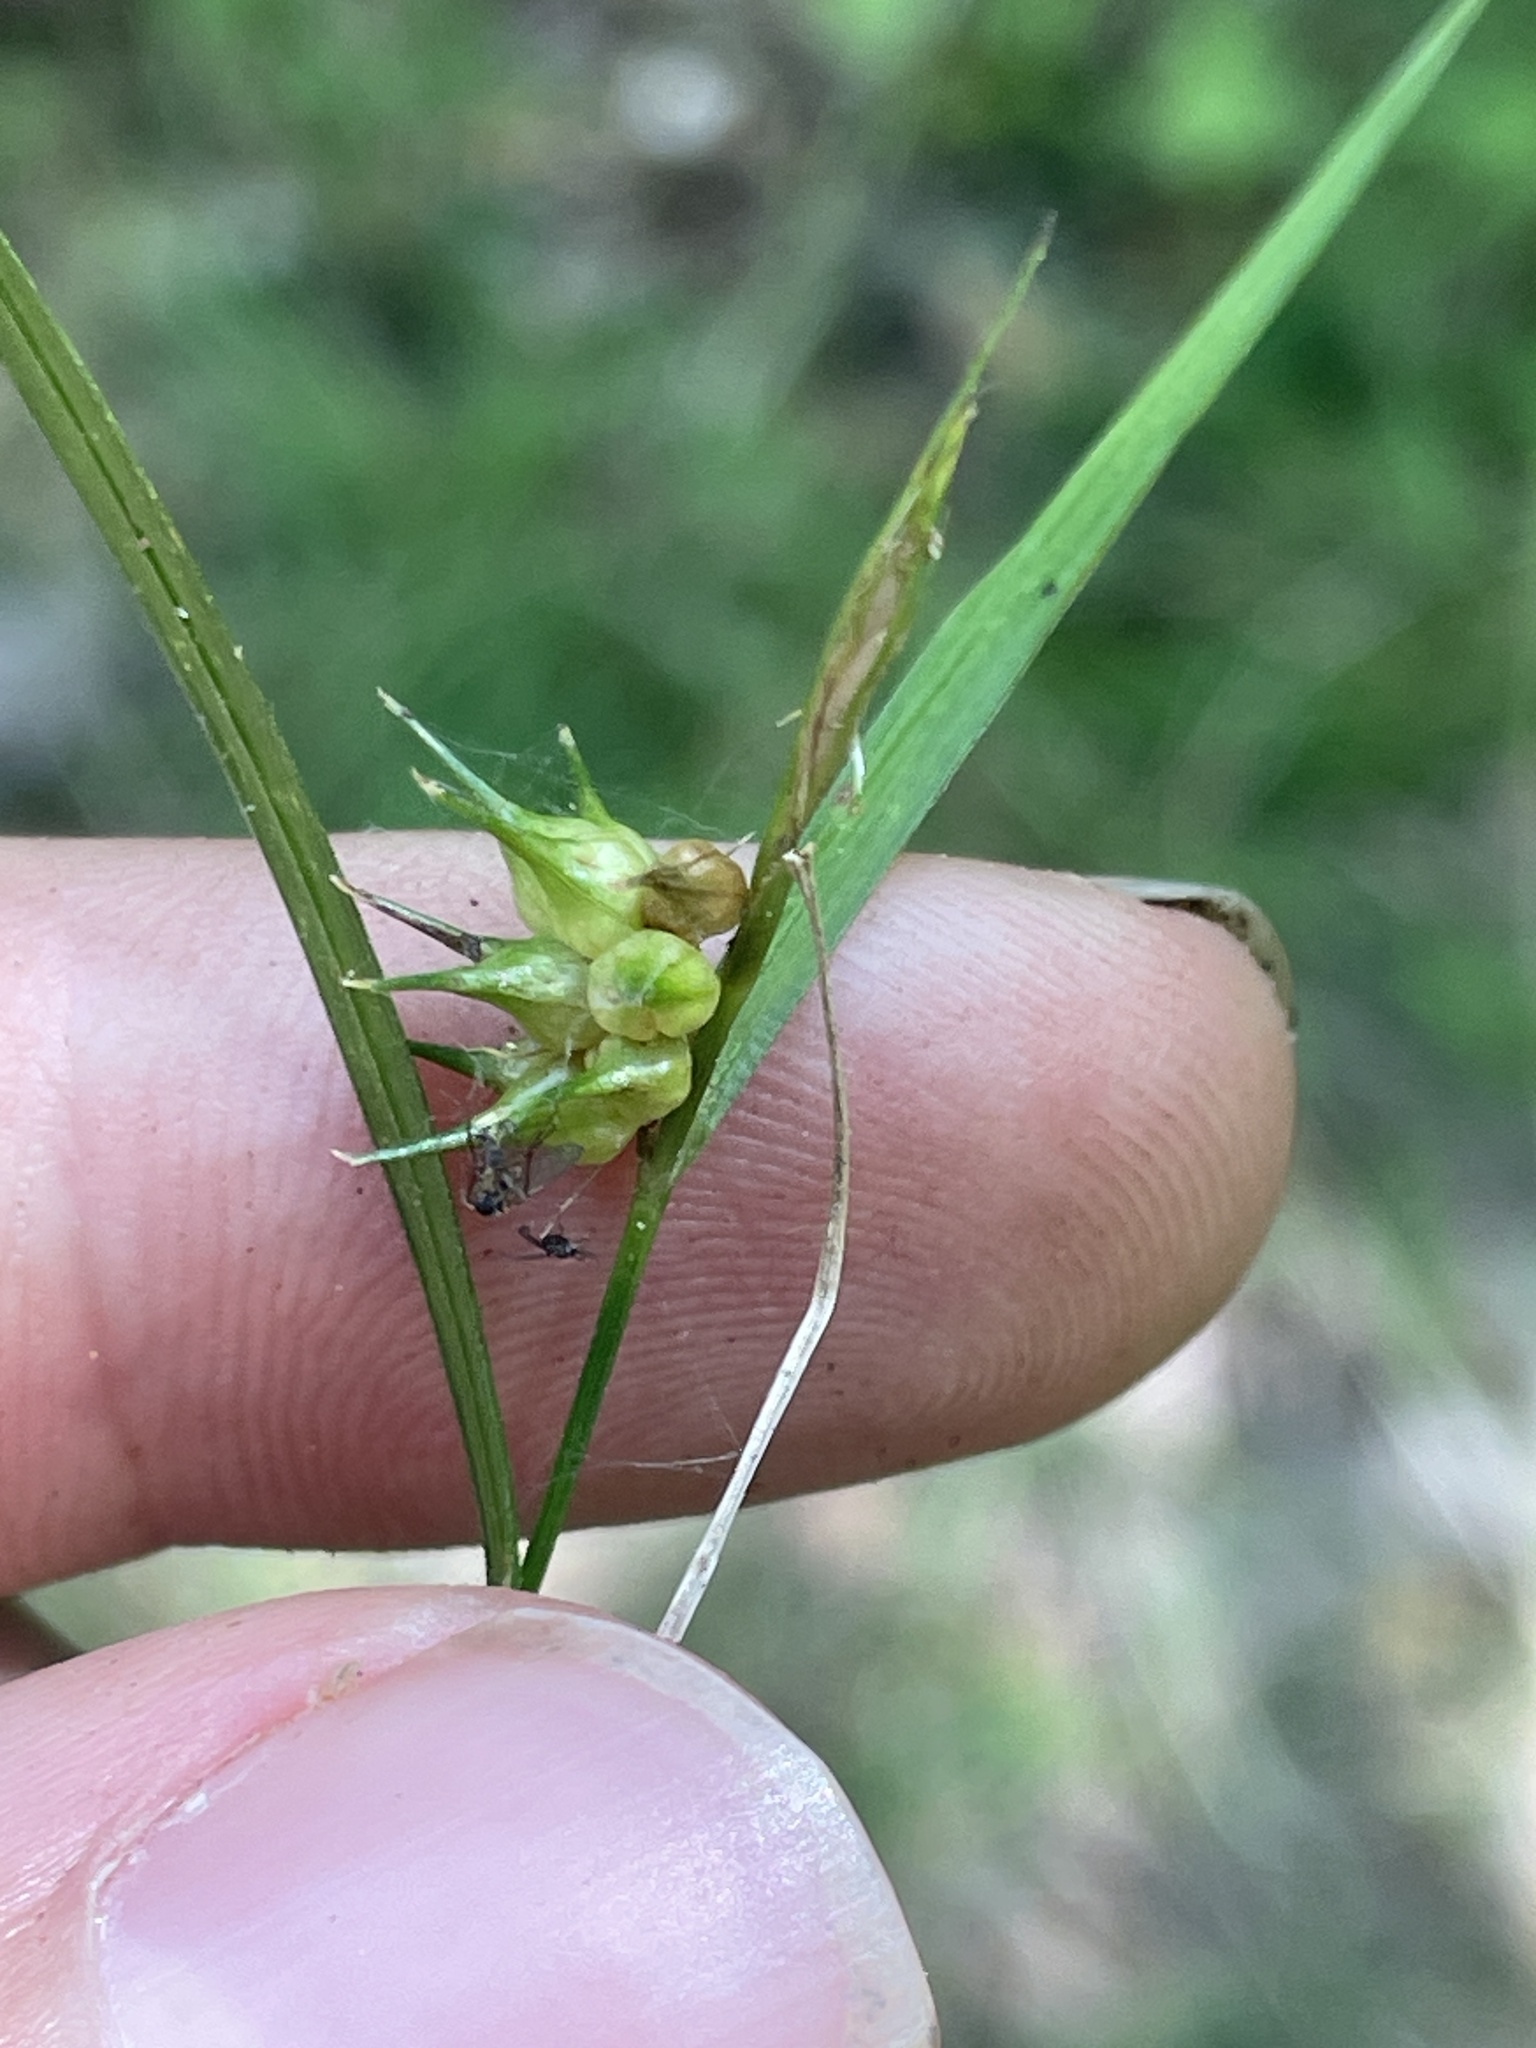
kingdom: Plantae
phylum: Tracheophyta
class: Liliopsida
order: Poales
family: Cyperaceae
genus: Carex
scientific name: Carex lurida
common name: Sallow sedge
